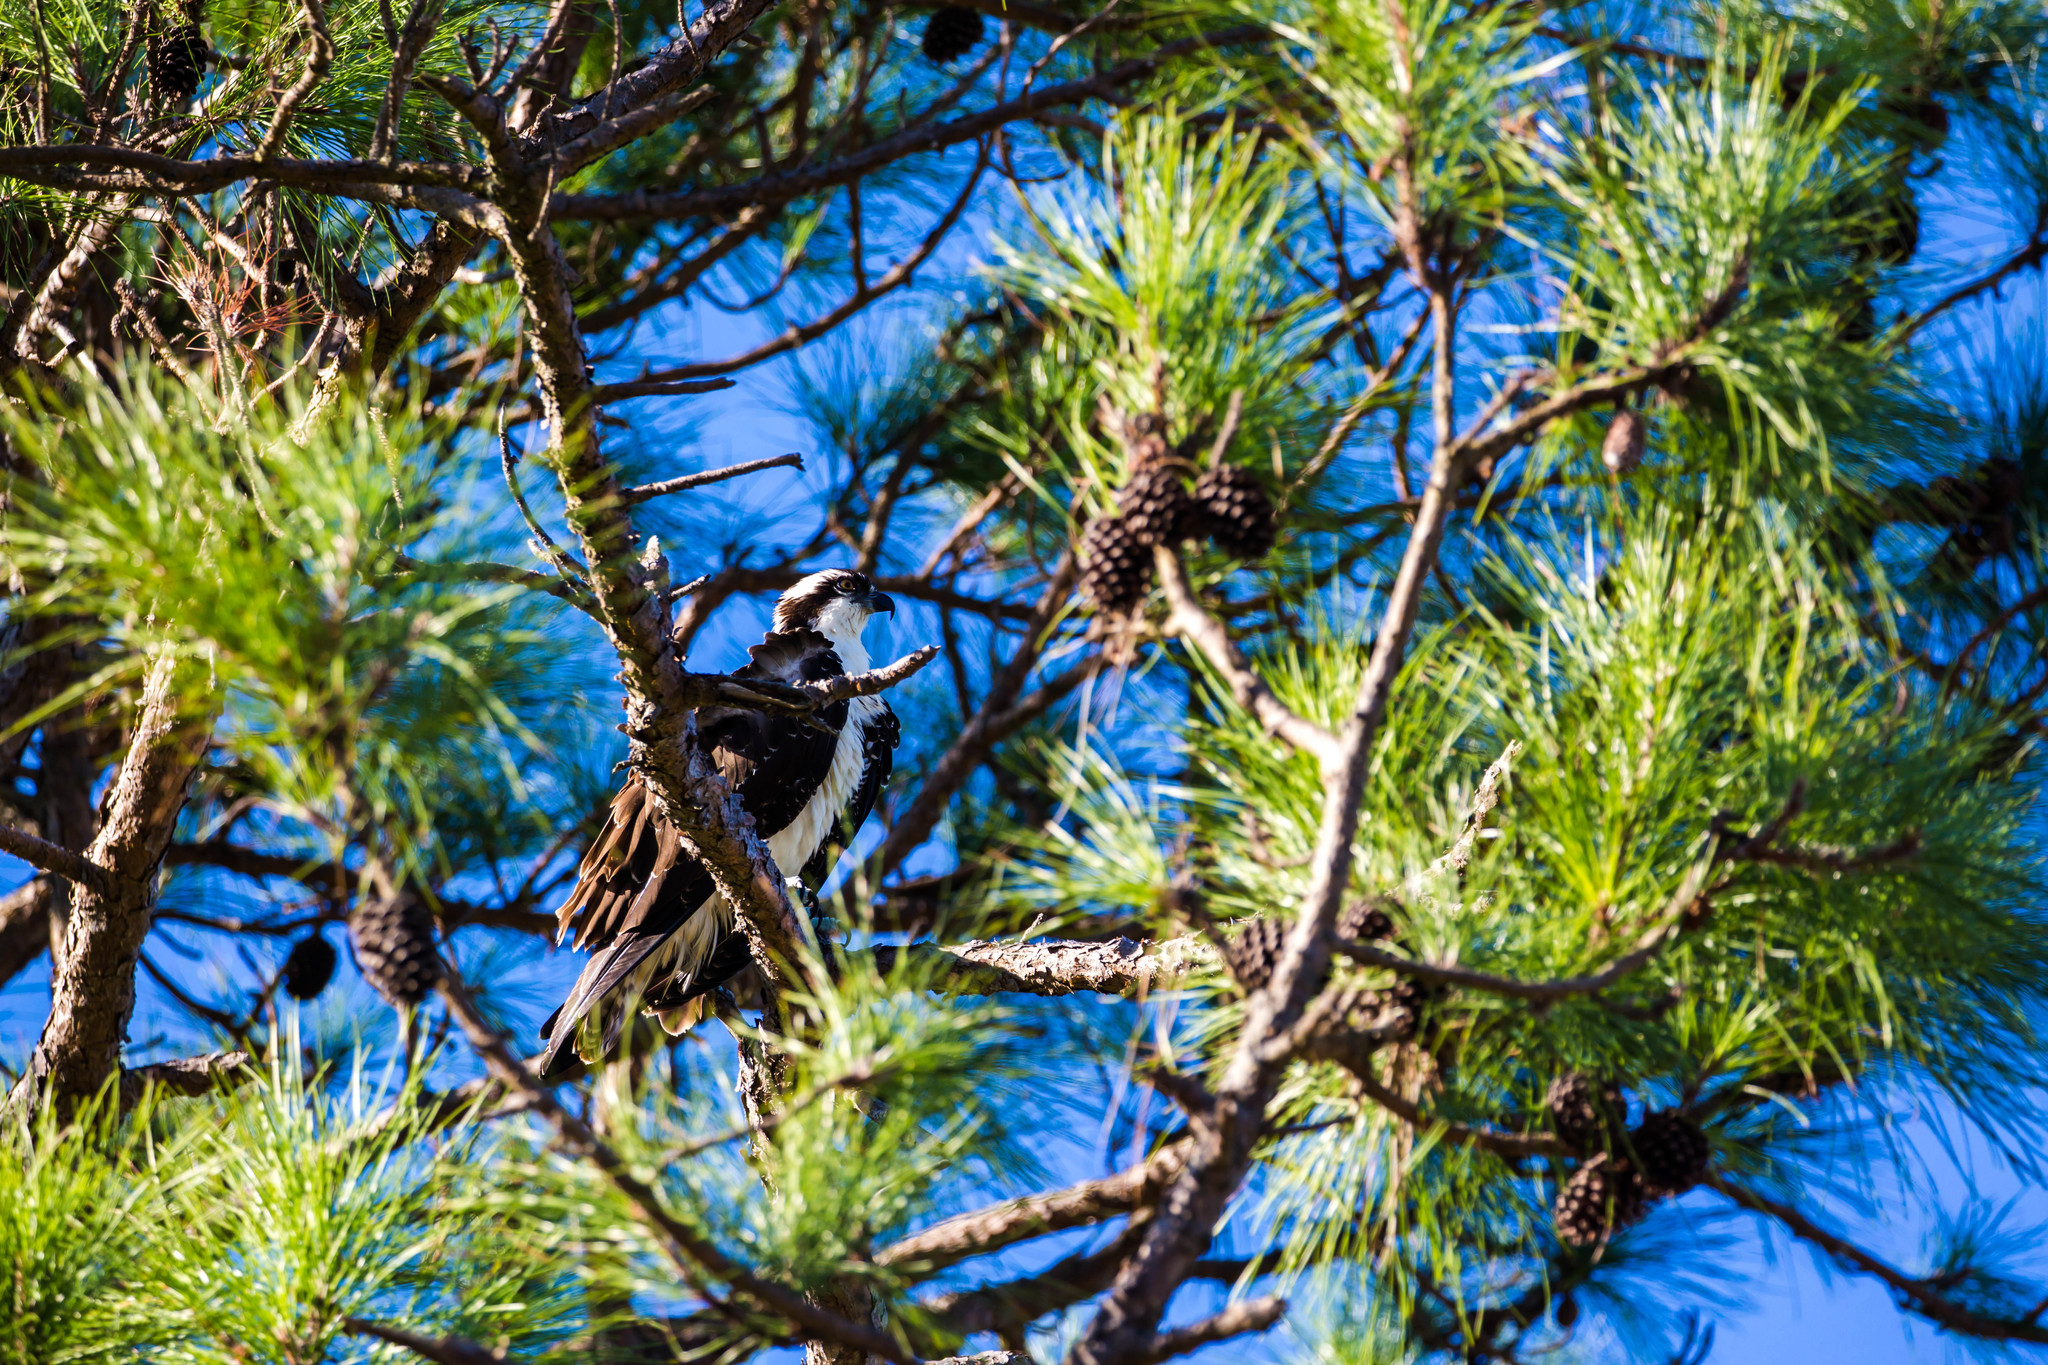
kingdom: Animalia
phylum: Chordata
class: Aves
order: Accipitriformes
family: Pandionidae
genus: Pandion
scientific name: Pandion haliaetus
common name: Osprey
